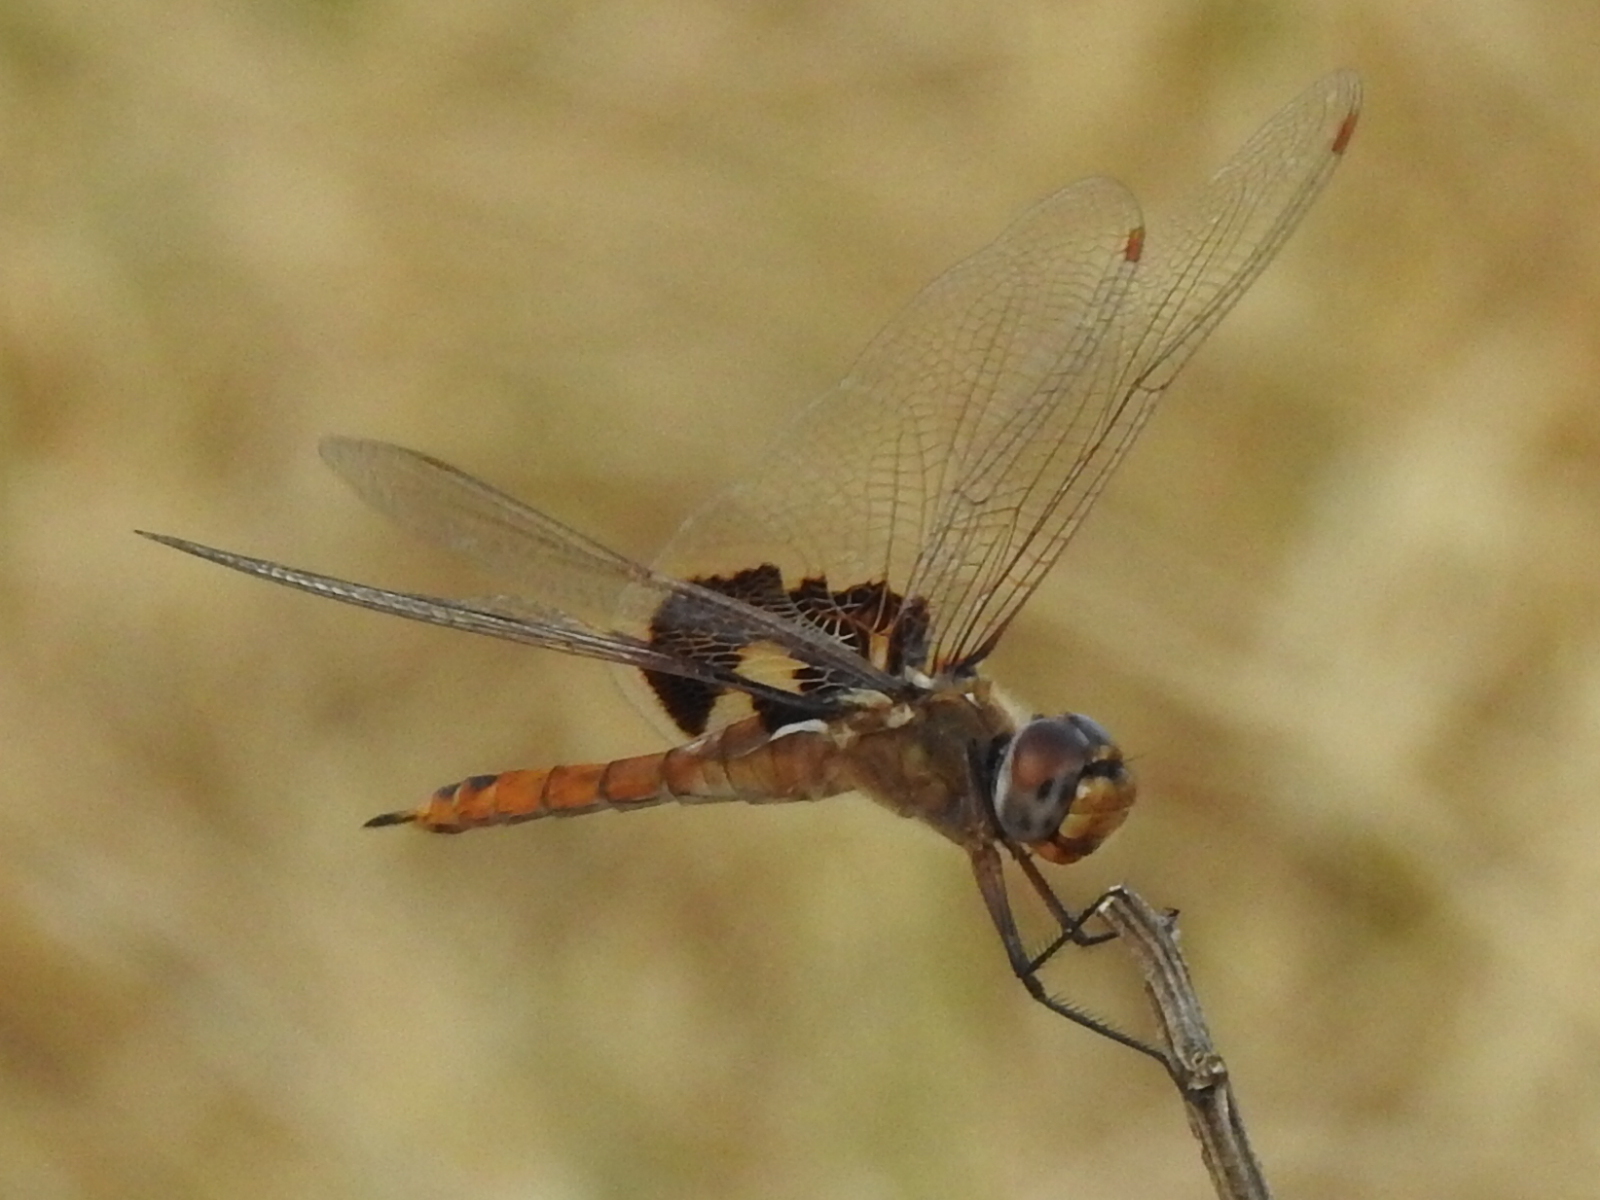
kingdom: Animalia
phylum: Arthropoda
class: Insecta
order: Odonata
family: Libellulidae
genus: Tramea
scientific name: Tramea onusta
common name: Red saddlebags
